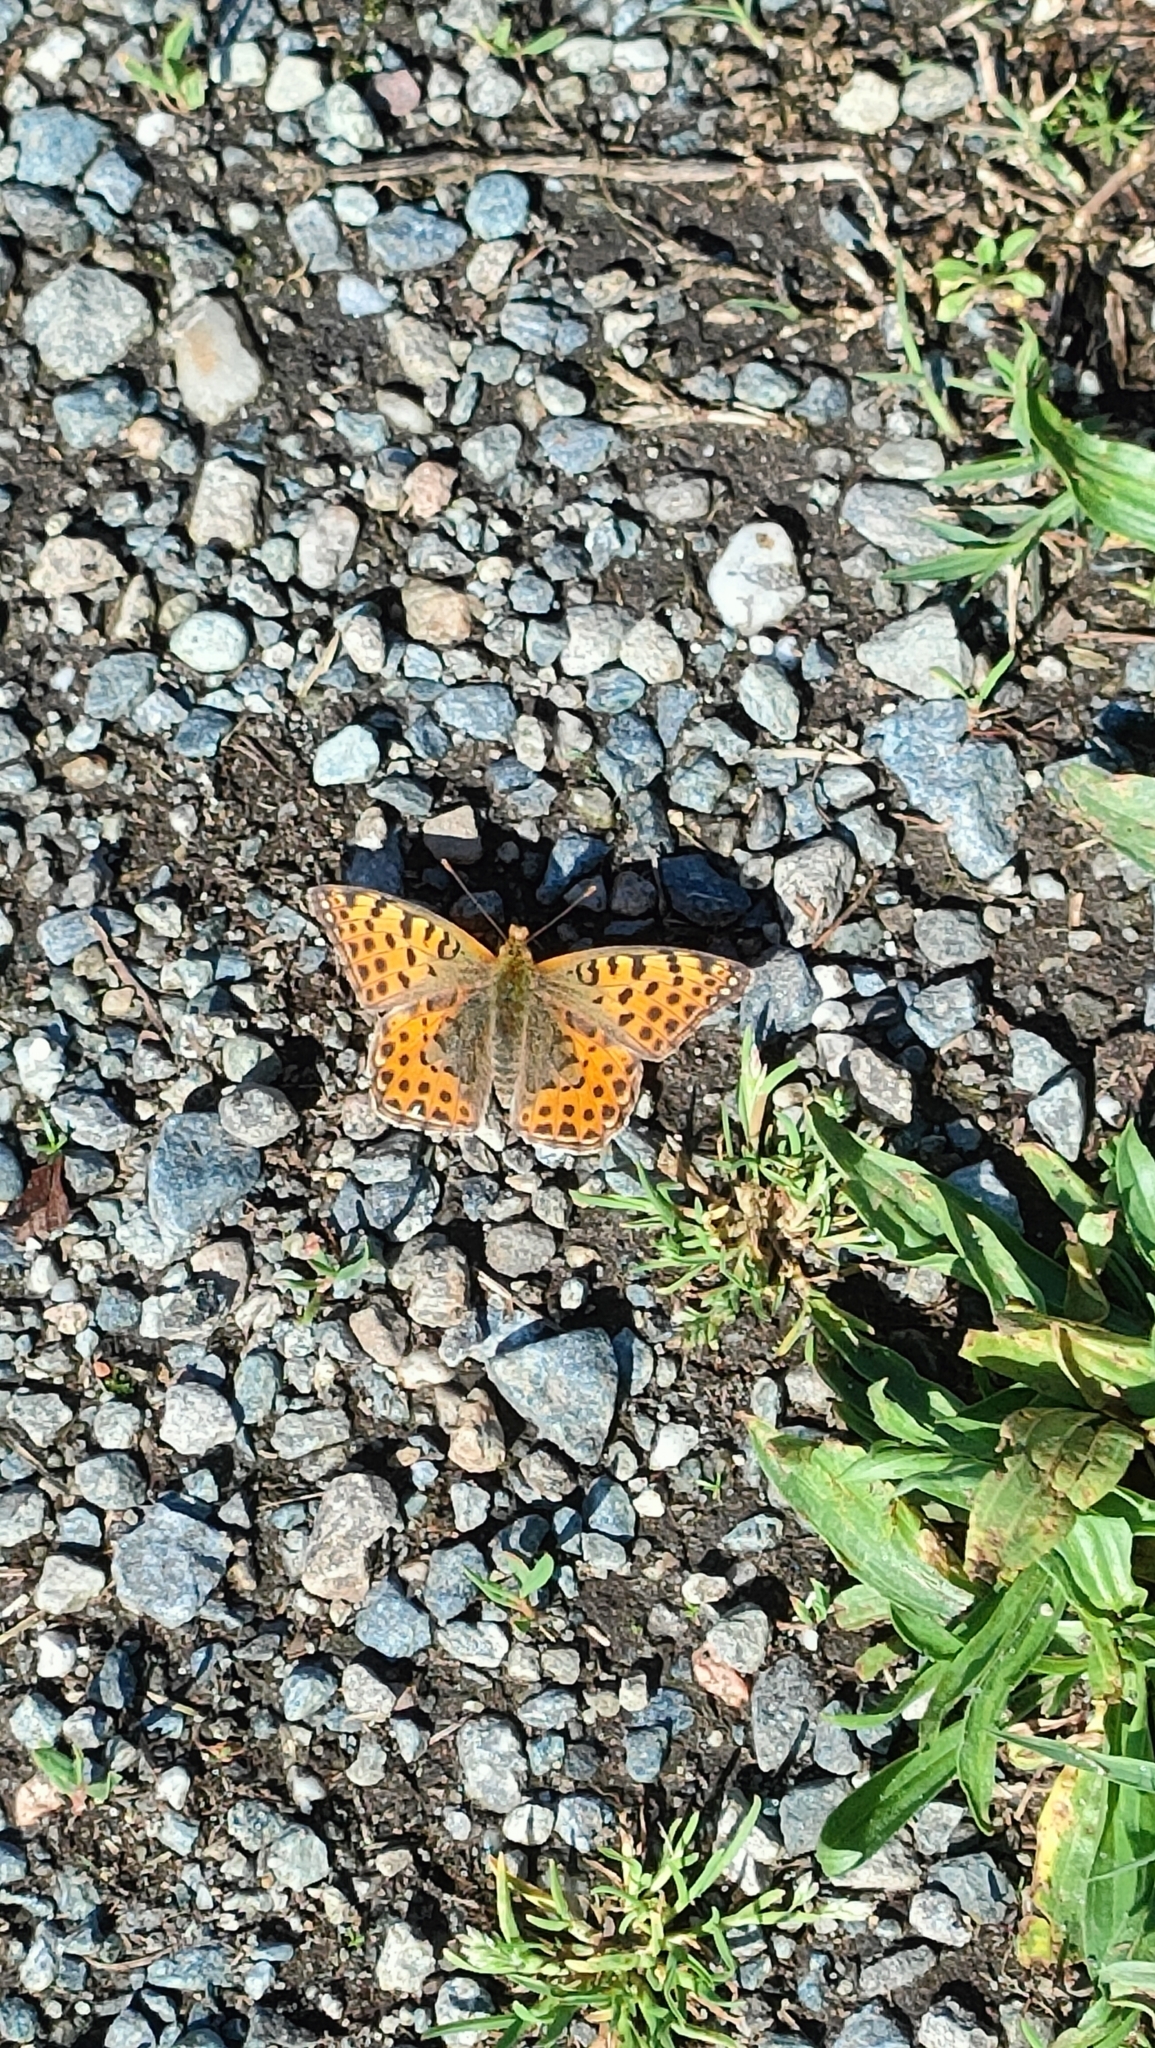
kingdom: Animalia
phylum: Arthropoda
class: Insecta
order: Lepidoptera
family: Nymphalidae
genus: Issoria
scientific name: Issoria lathonia
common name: Queen of spain fritillary
